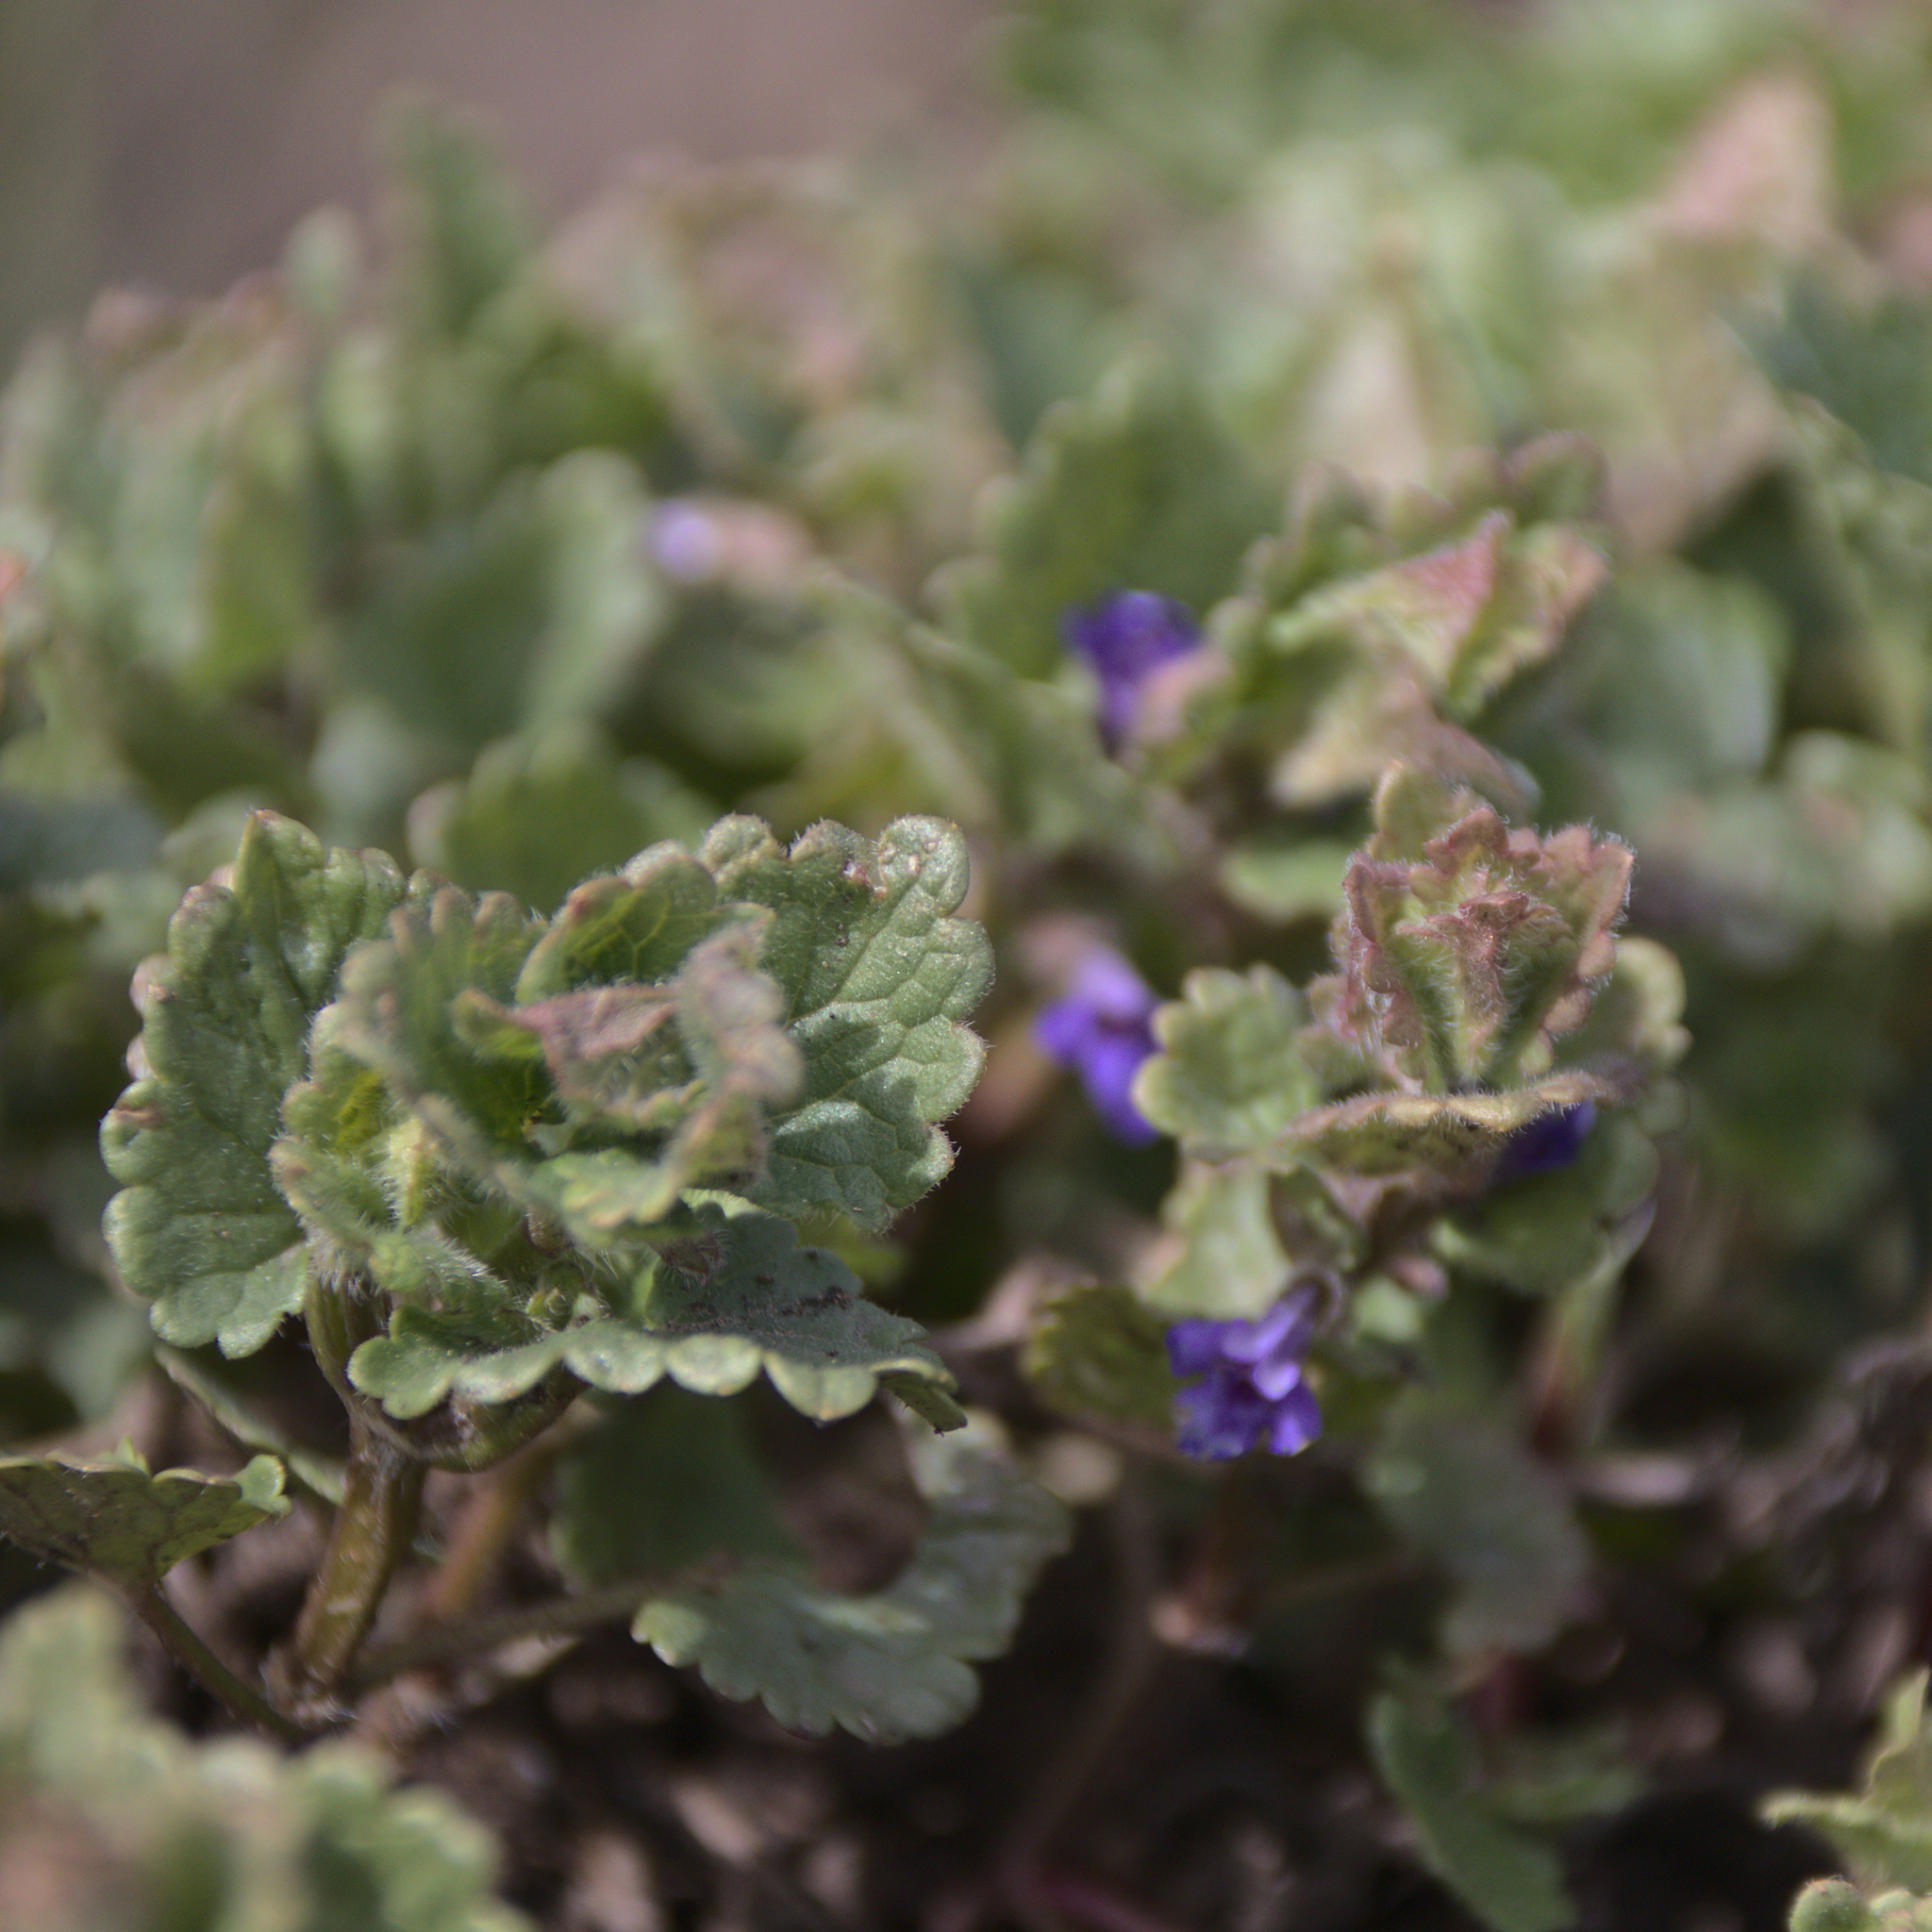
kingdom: Plantae
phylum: Tracheophyta
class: Magnoliopsida
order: Lamiales
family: Lamiaceae
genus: Glechoma
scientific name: Glechoma hederacea
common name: Ground ivy
